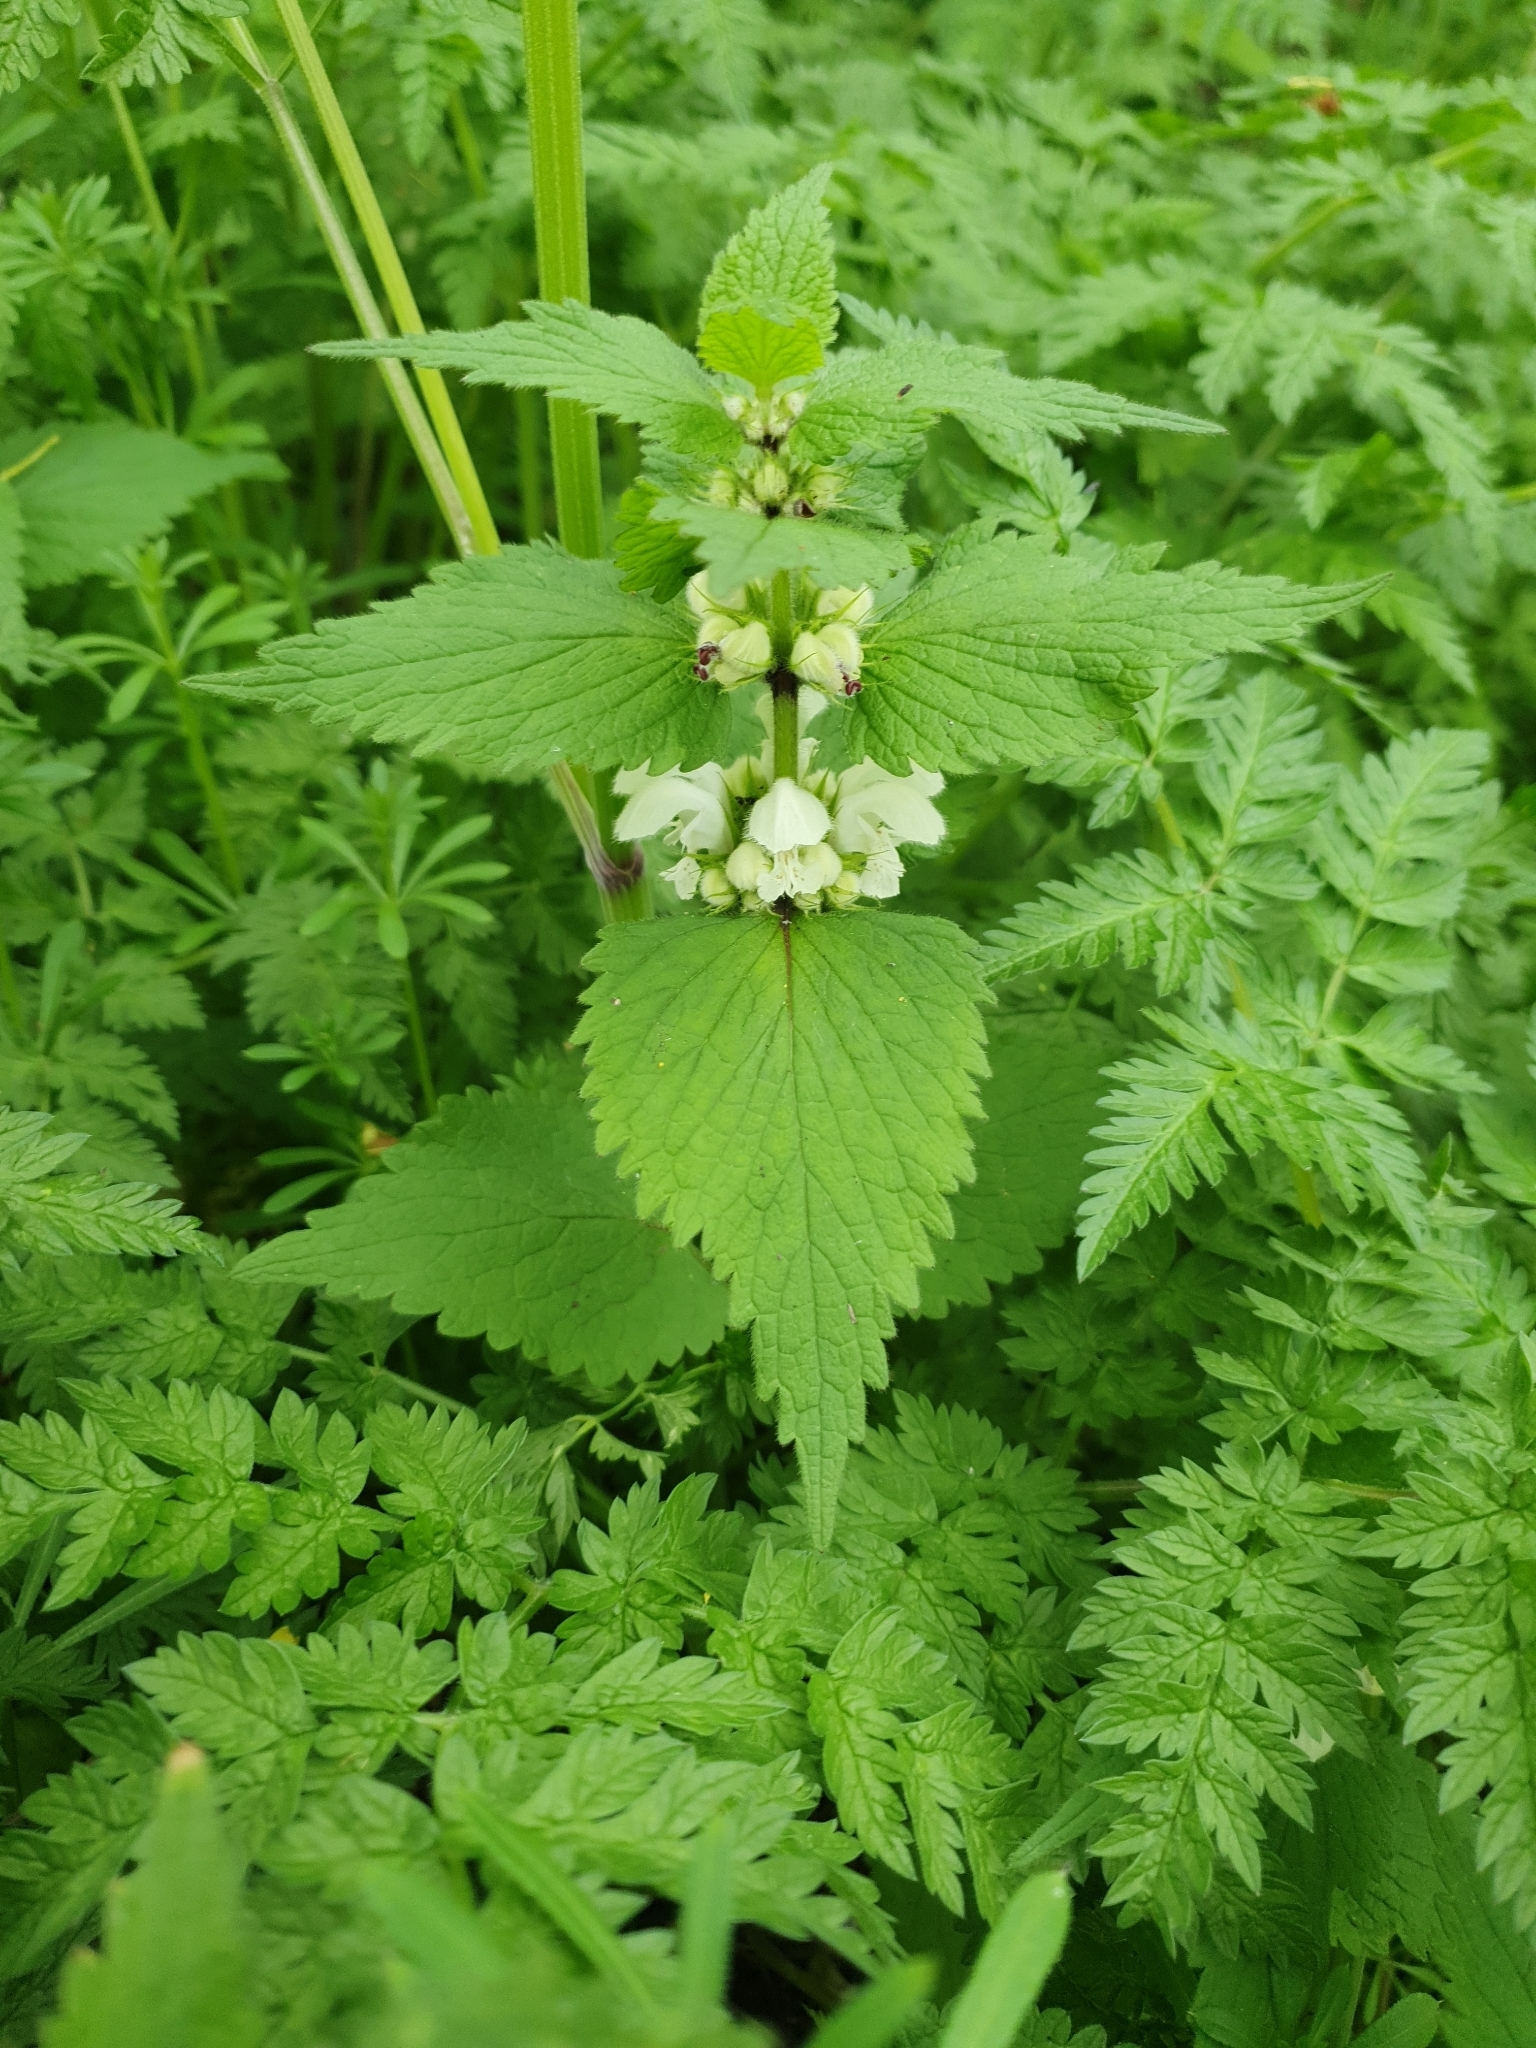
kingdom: Plantae
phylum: Tracheophyta
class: Magnoliopsida
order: Lamiales
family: Lamiaceae
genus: Lamium
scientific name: Lamium album
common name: White dead-nettle
